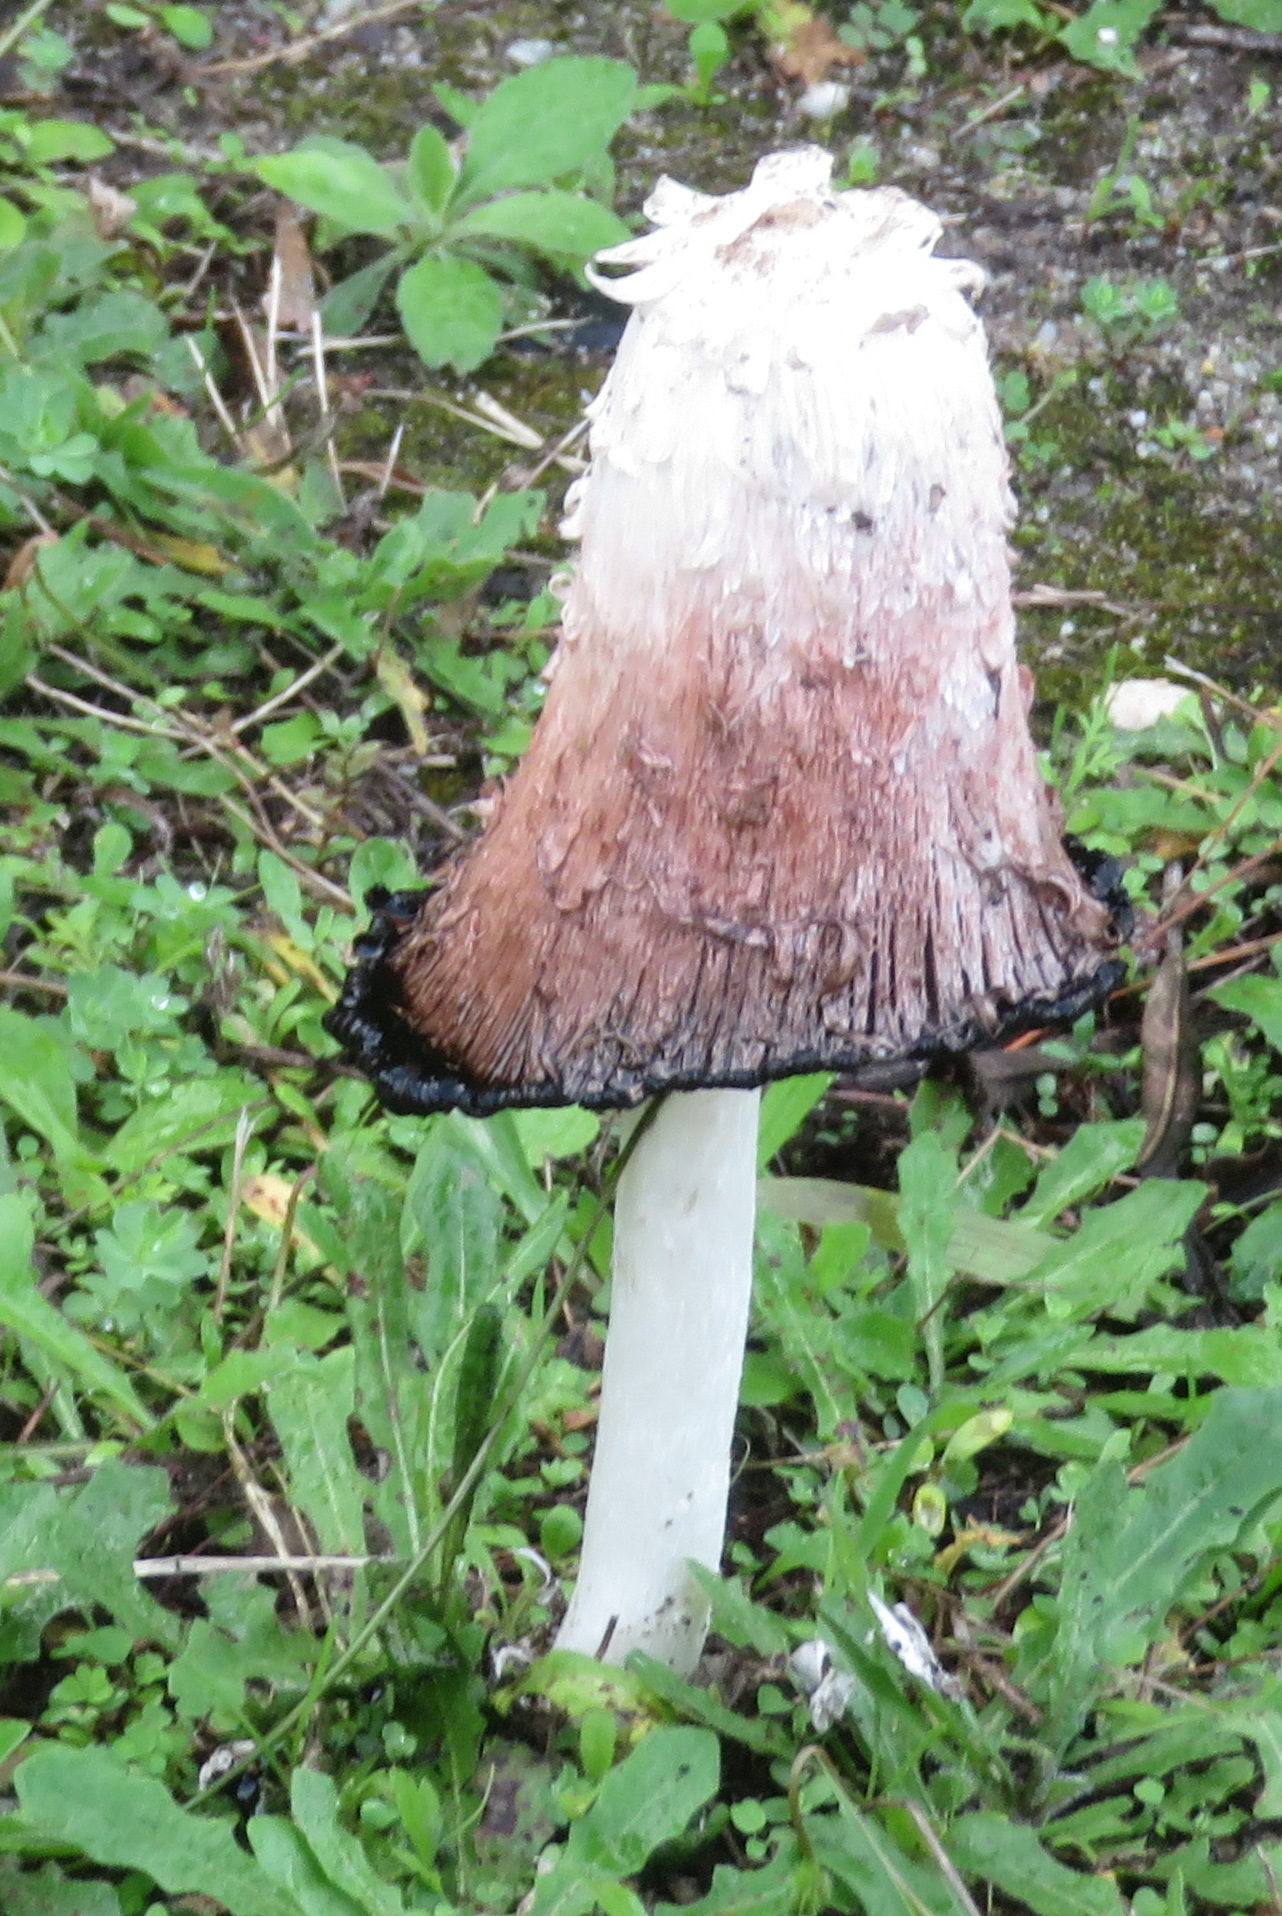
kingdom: Fungi
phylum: Basidiomycota
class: Agaricomycetes
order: Agaricales
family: Agaricaceae
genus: Coprinus
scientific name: Coprinus comatus
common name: Lawyer's wig
